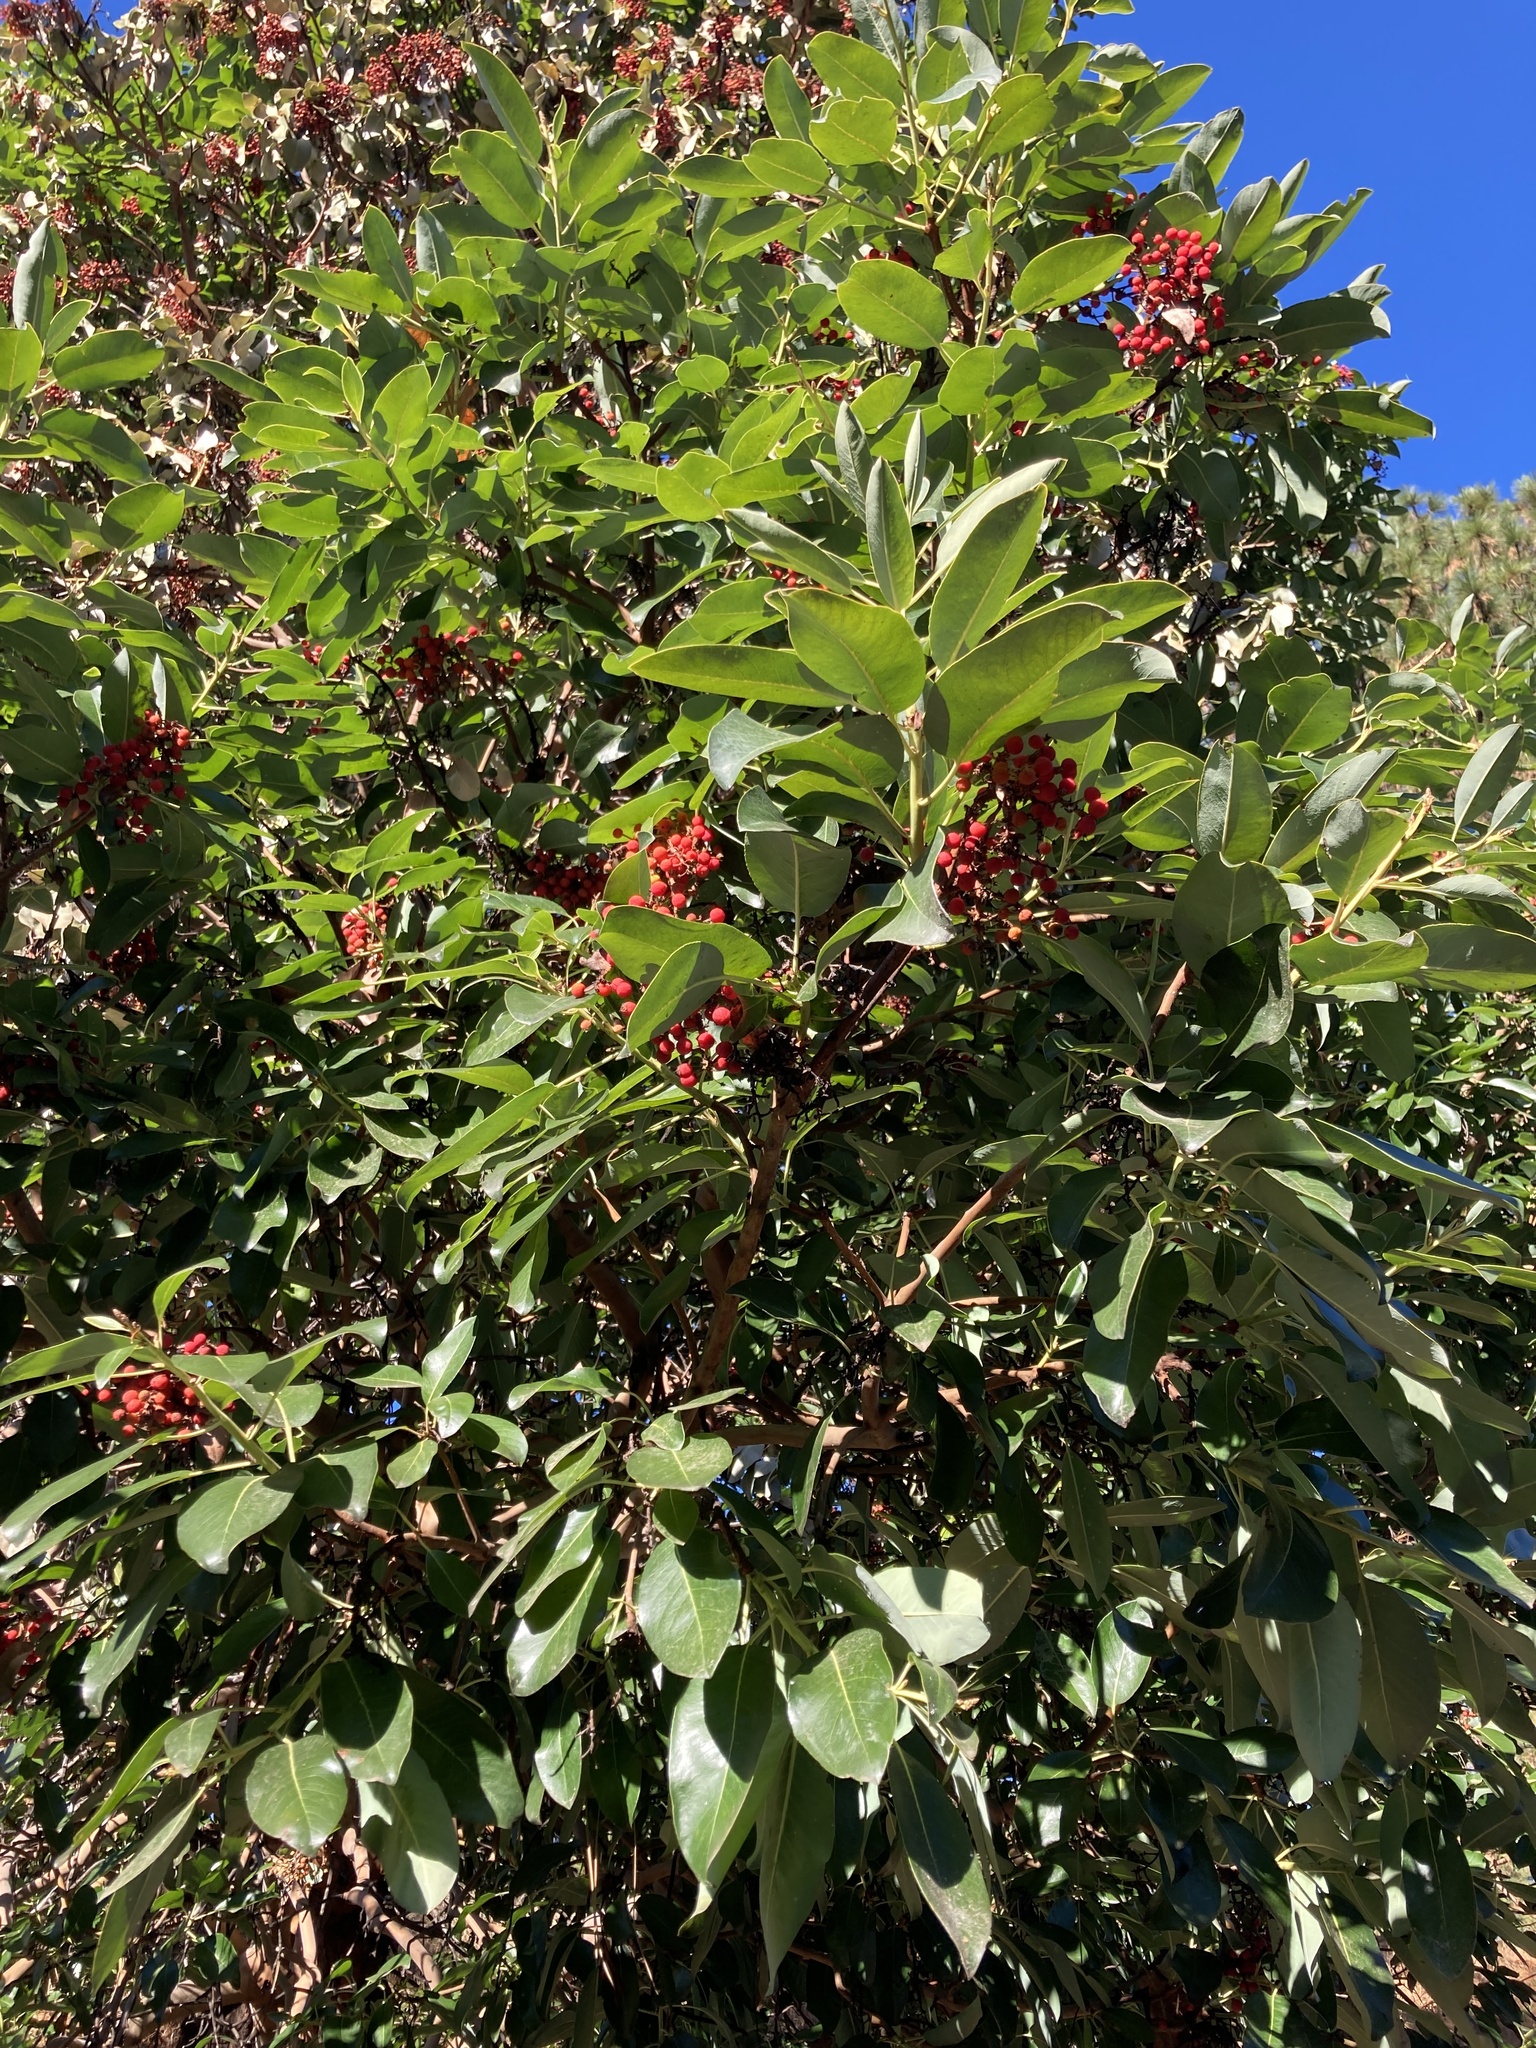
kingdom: Plantae
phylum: Tracheophyta
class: Magnoliopsida
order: Ericales
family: Ericaceae
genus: Arbutus
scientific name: Arbutus menziesii
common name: Pacific madrone
